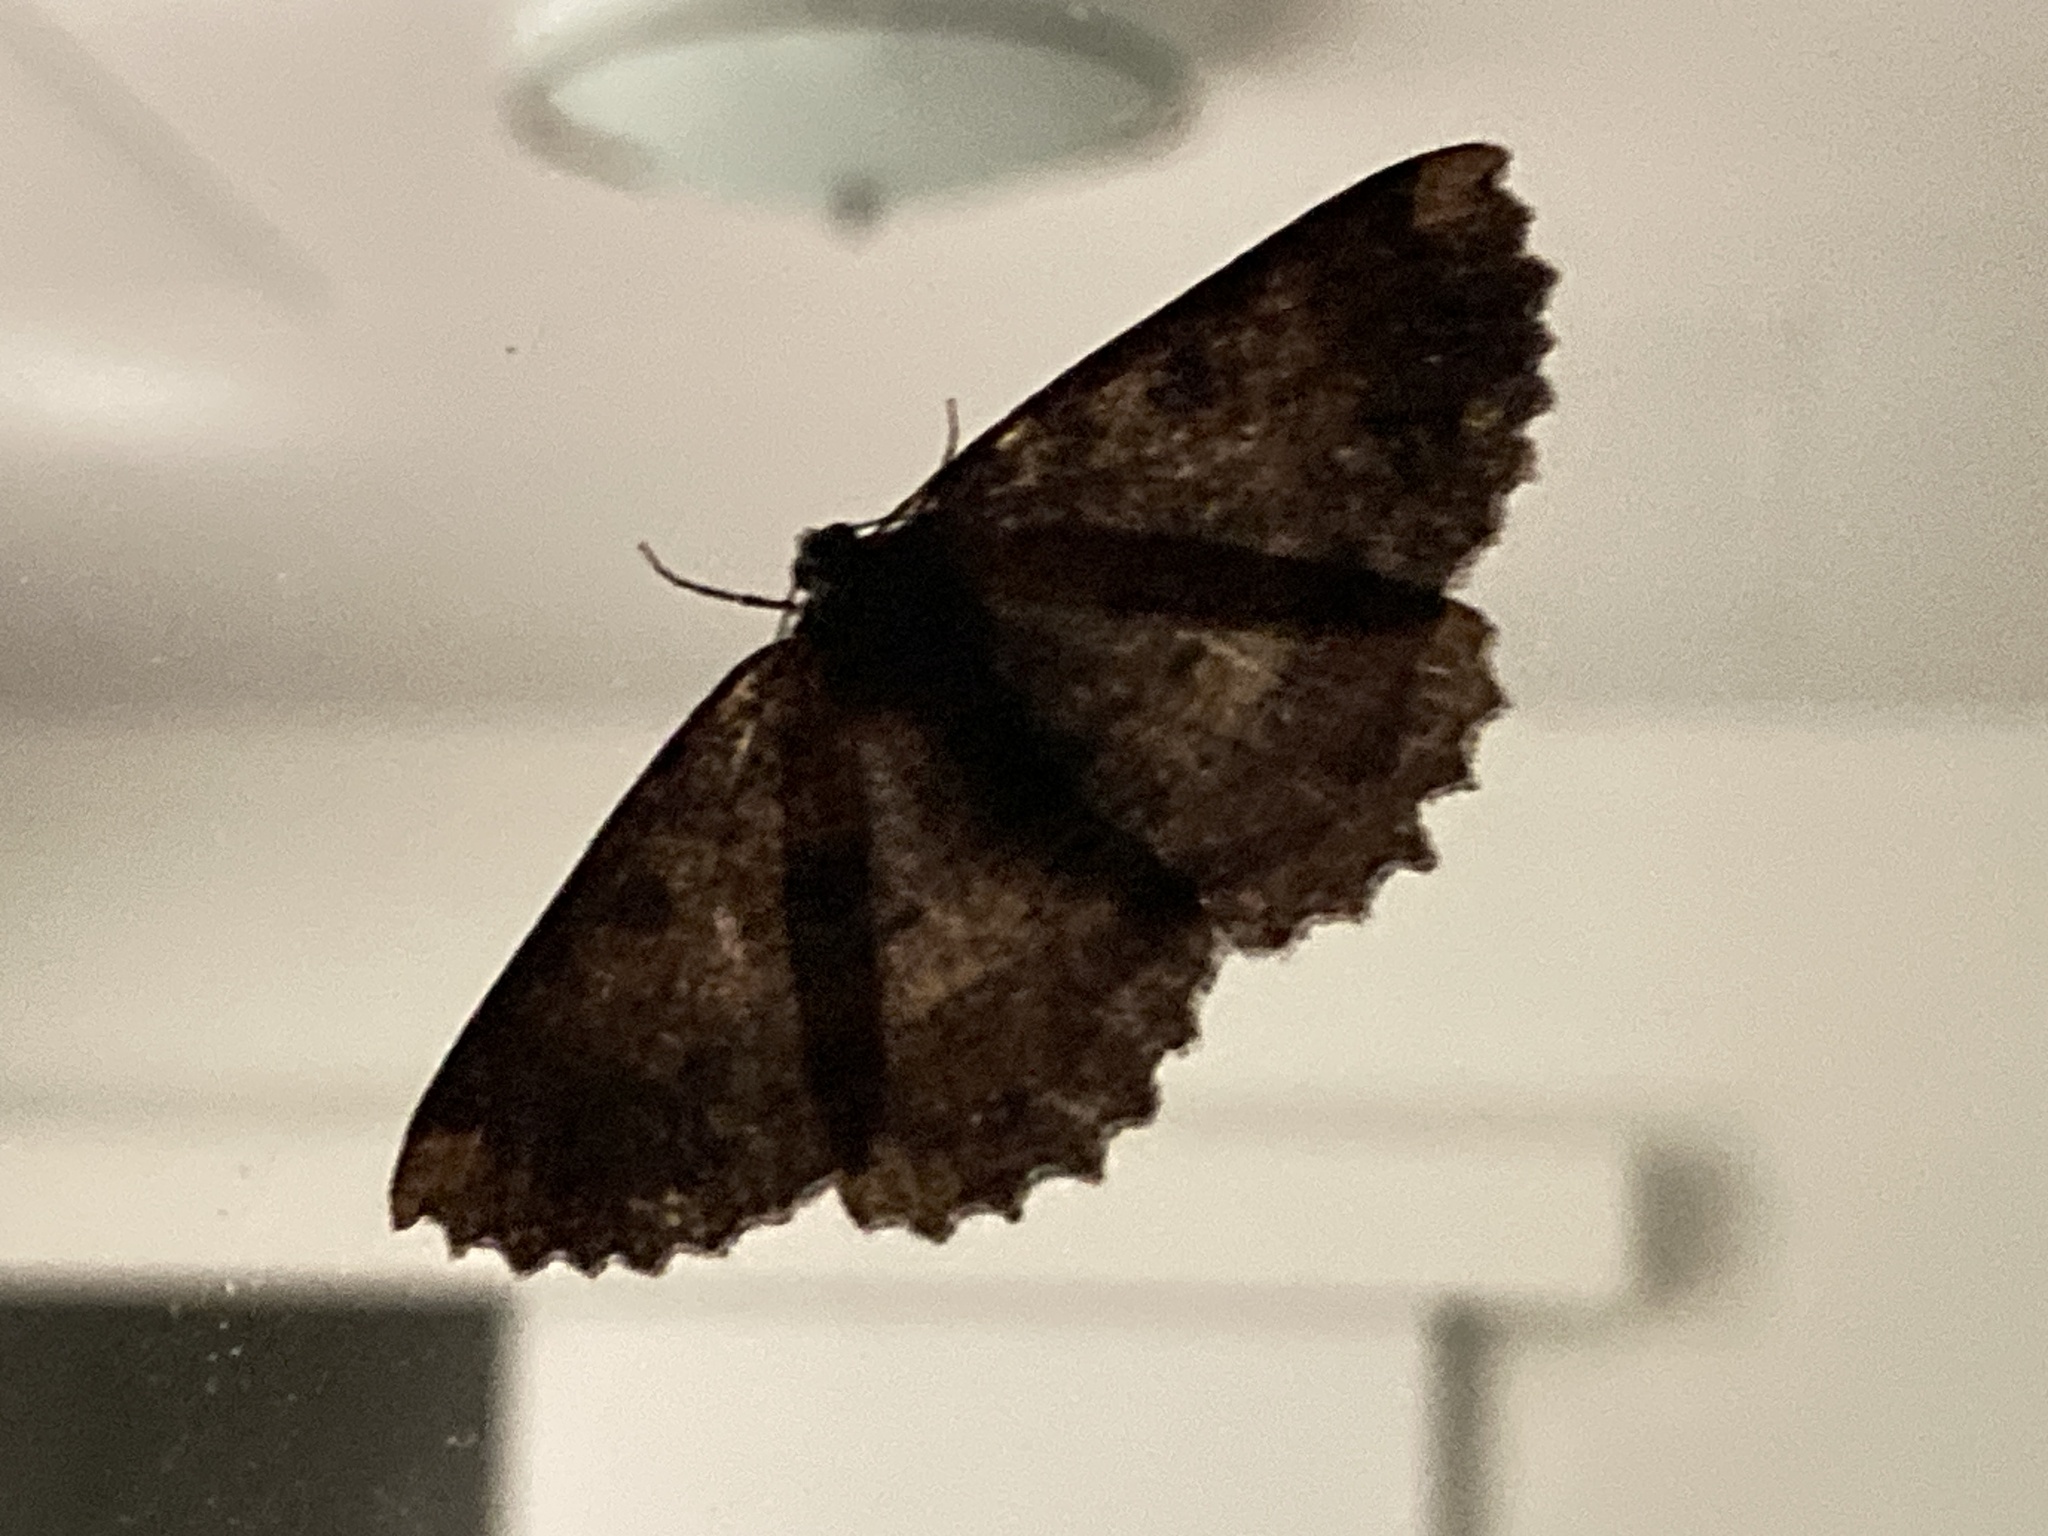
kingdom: Animalia
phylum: Arthropoda
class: Insecta
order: Lepidoptera
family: Geometridae
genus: Gellonia
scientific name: Gellonia dejectaria
